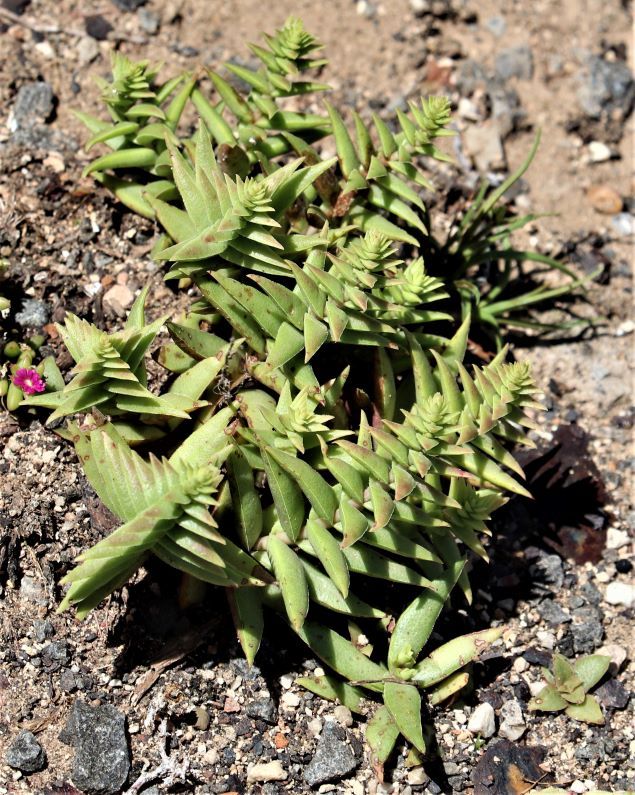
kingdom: Plantae
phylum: Tracheophyta
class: Magnoliopsida
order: Saxifragales
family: Crassulaceae
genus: Crassula
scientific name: Crassula capitella
